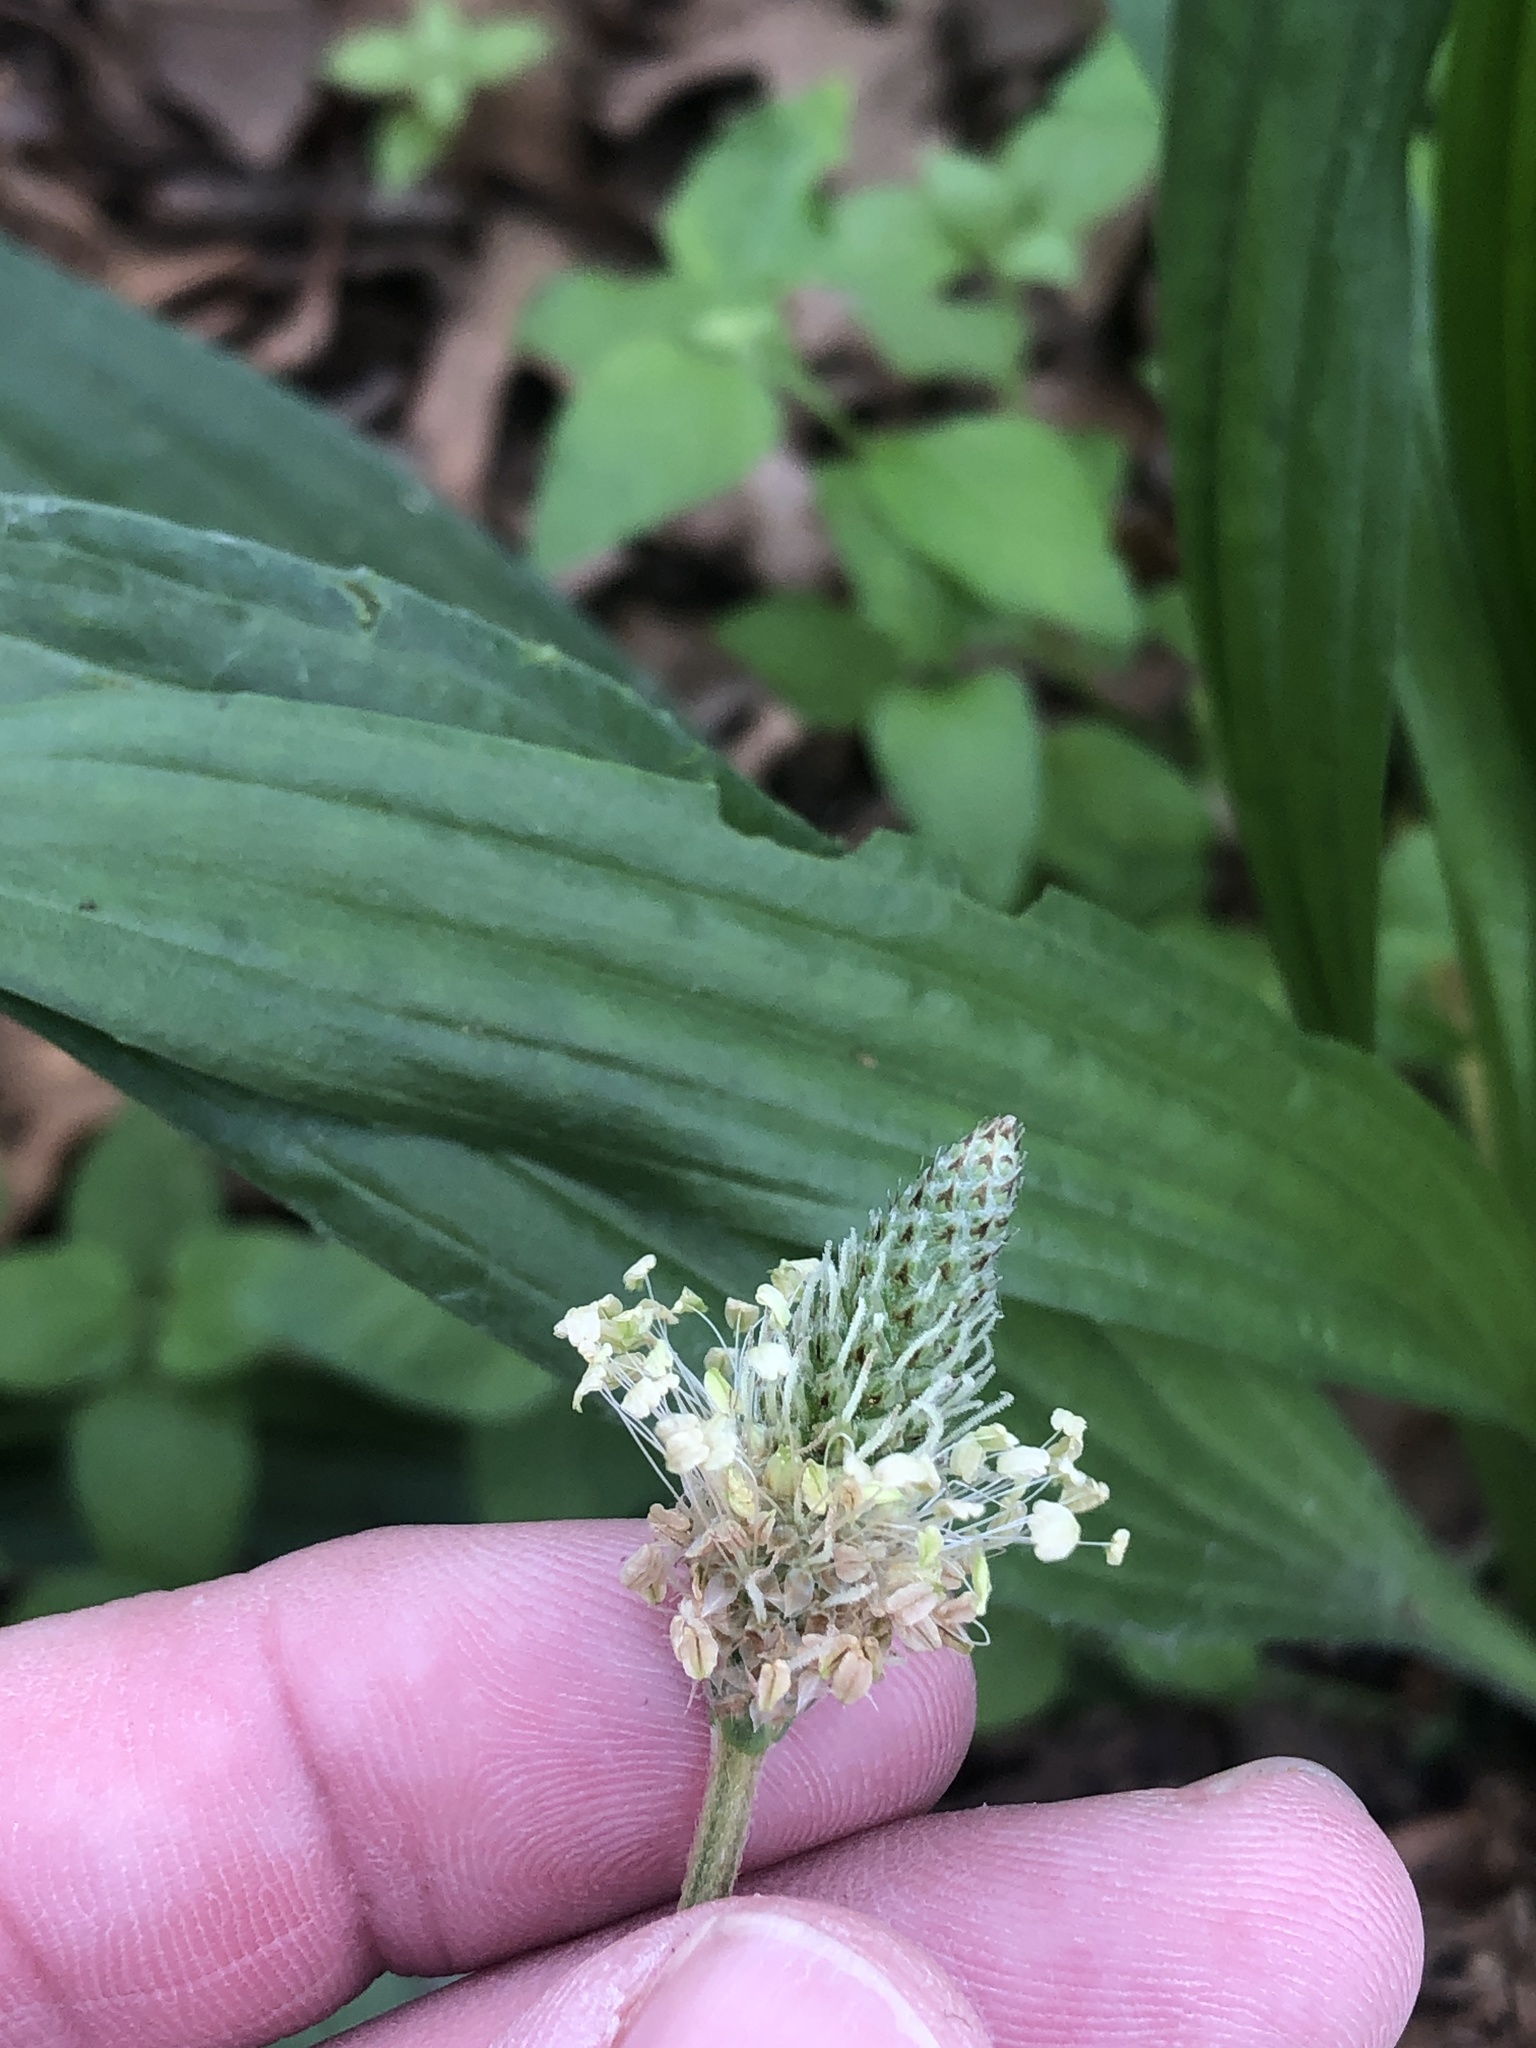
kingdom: Plantae
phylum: Tracheophyta
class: Magnoliopsida
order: Lamiales
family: Plantaginaceae
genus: Plantago
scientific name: Plantago lanceolata
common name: Ribwort plantain
